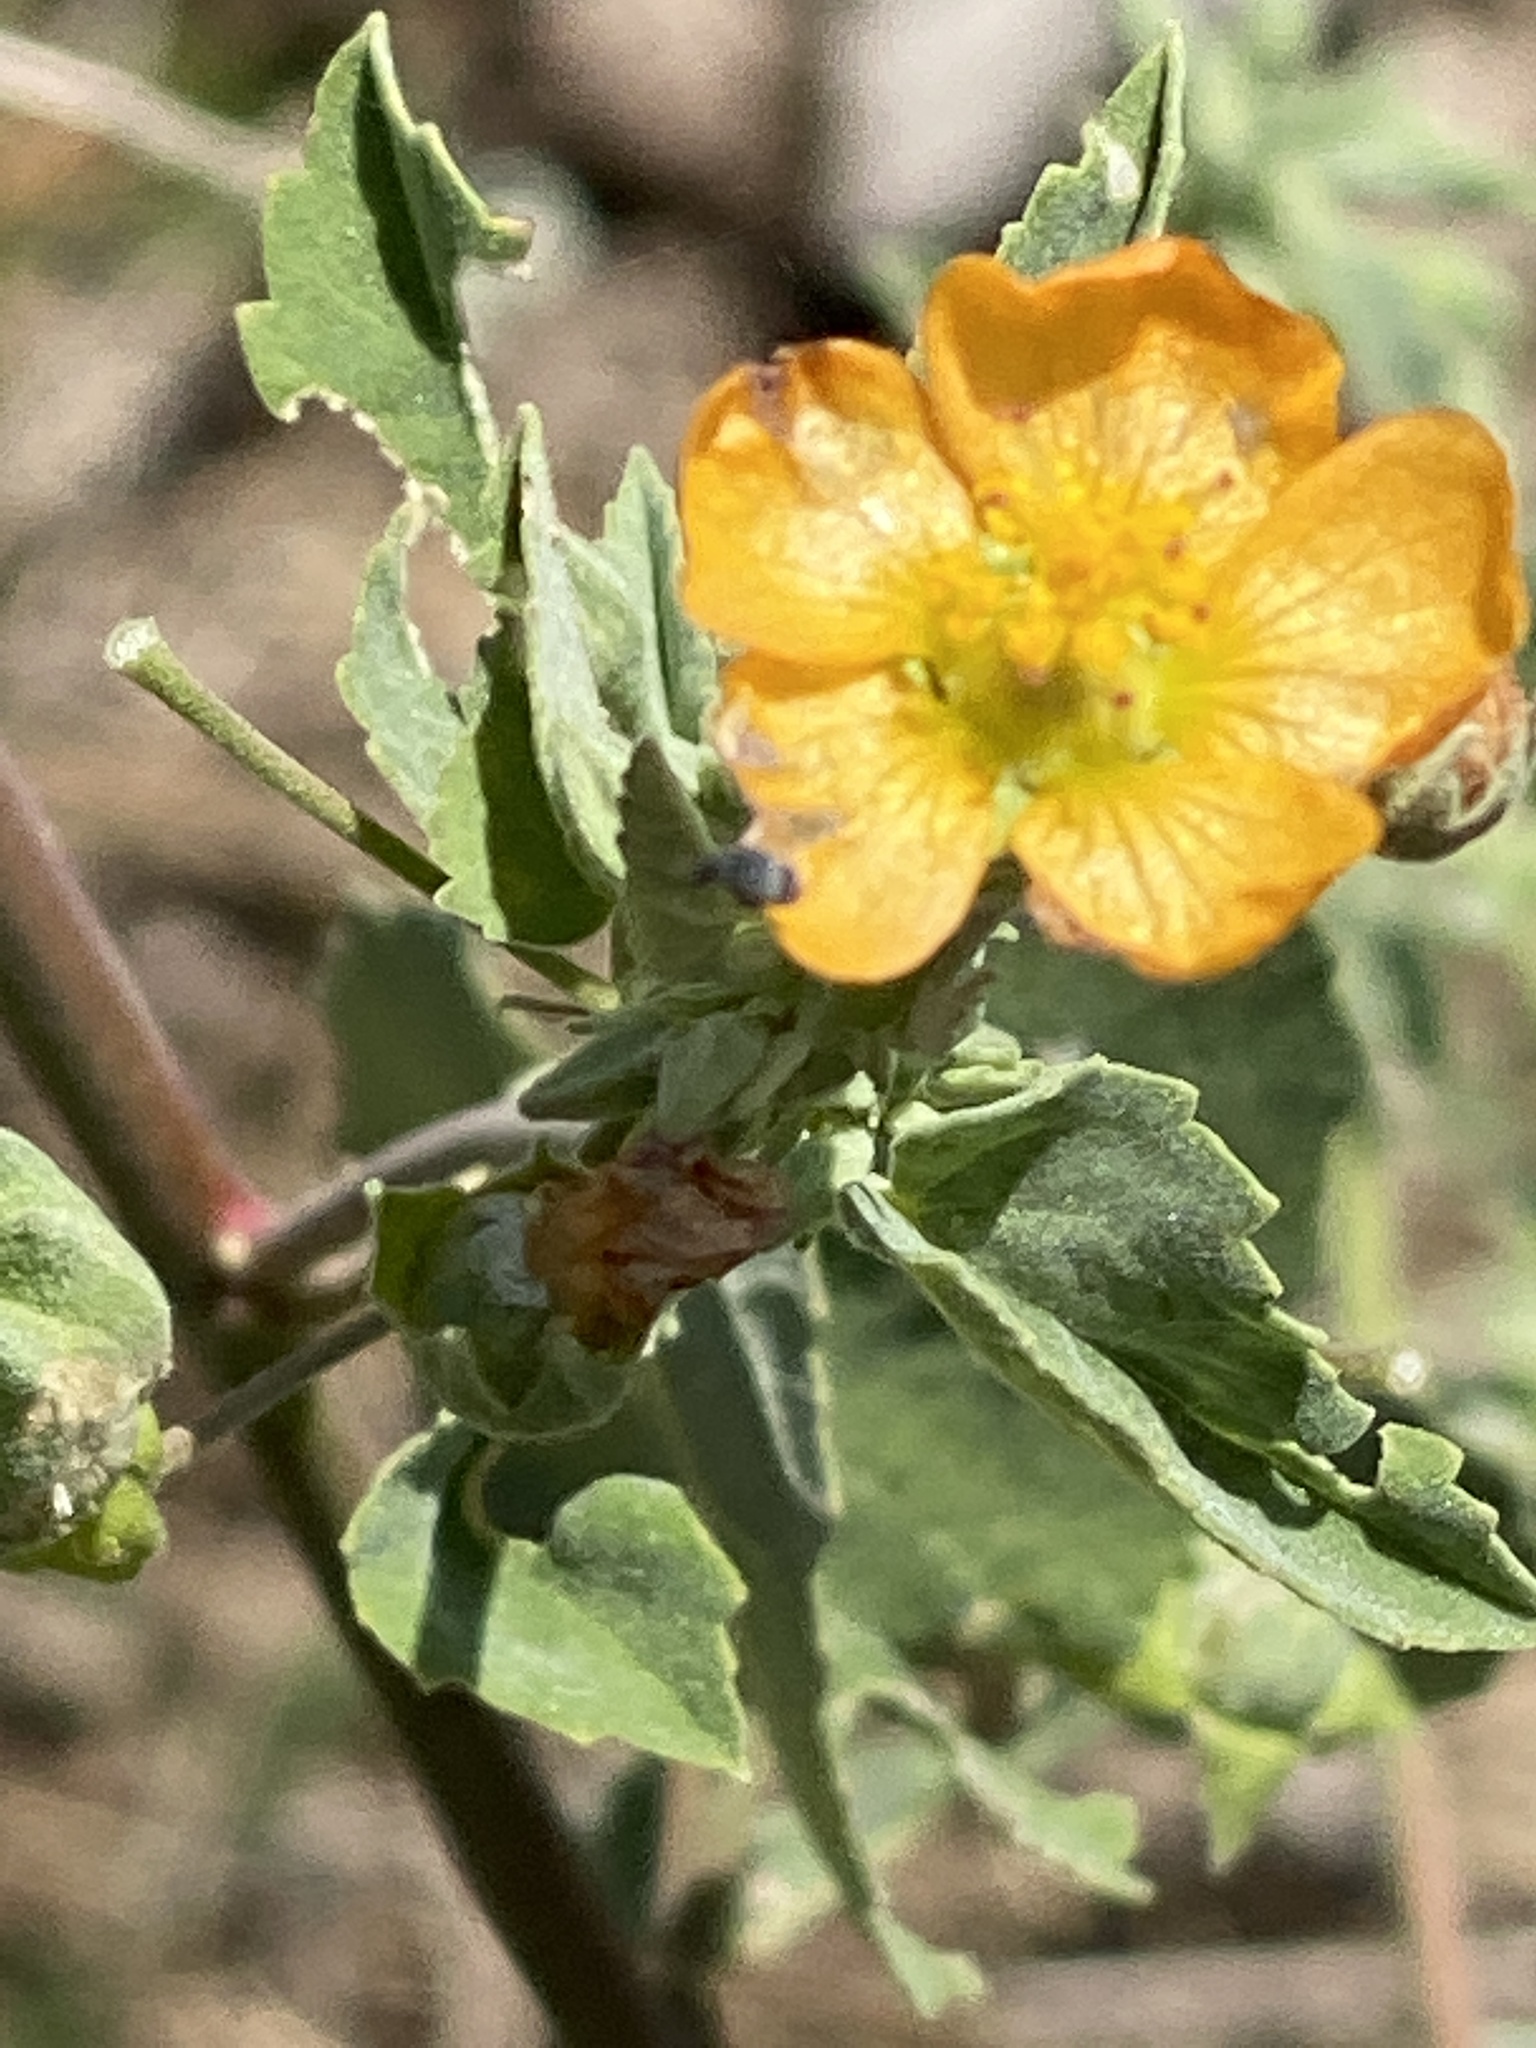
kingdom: Plantae
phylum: Tracheophyta
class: Magnoliopsida
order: Malvales
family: Malvaceae
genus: Abutilon
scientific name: Abutilon fruticosum
